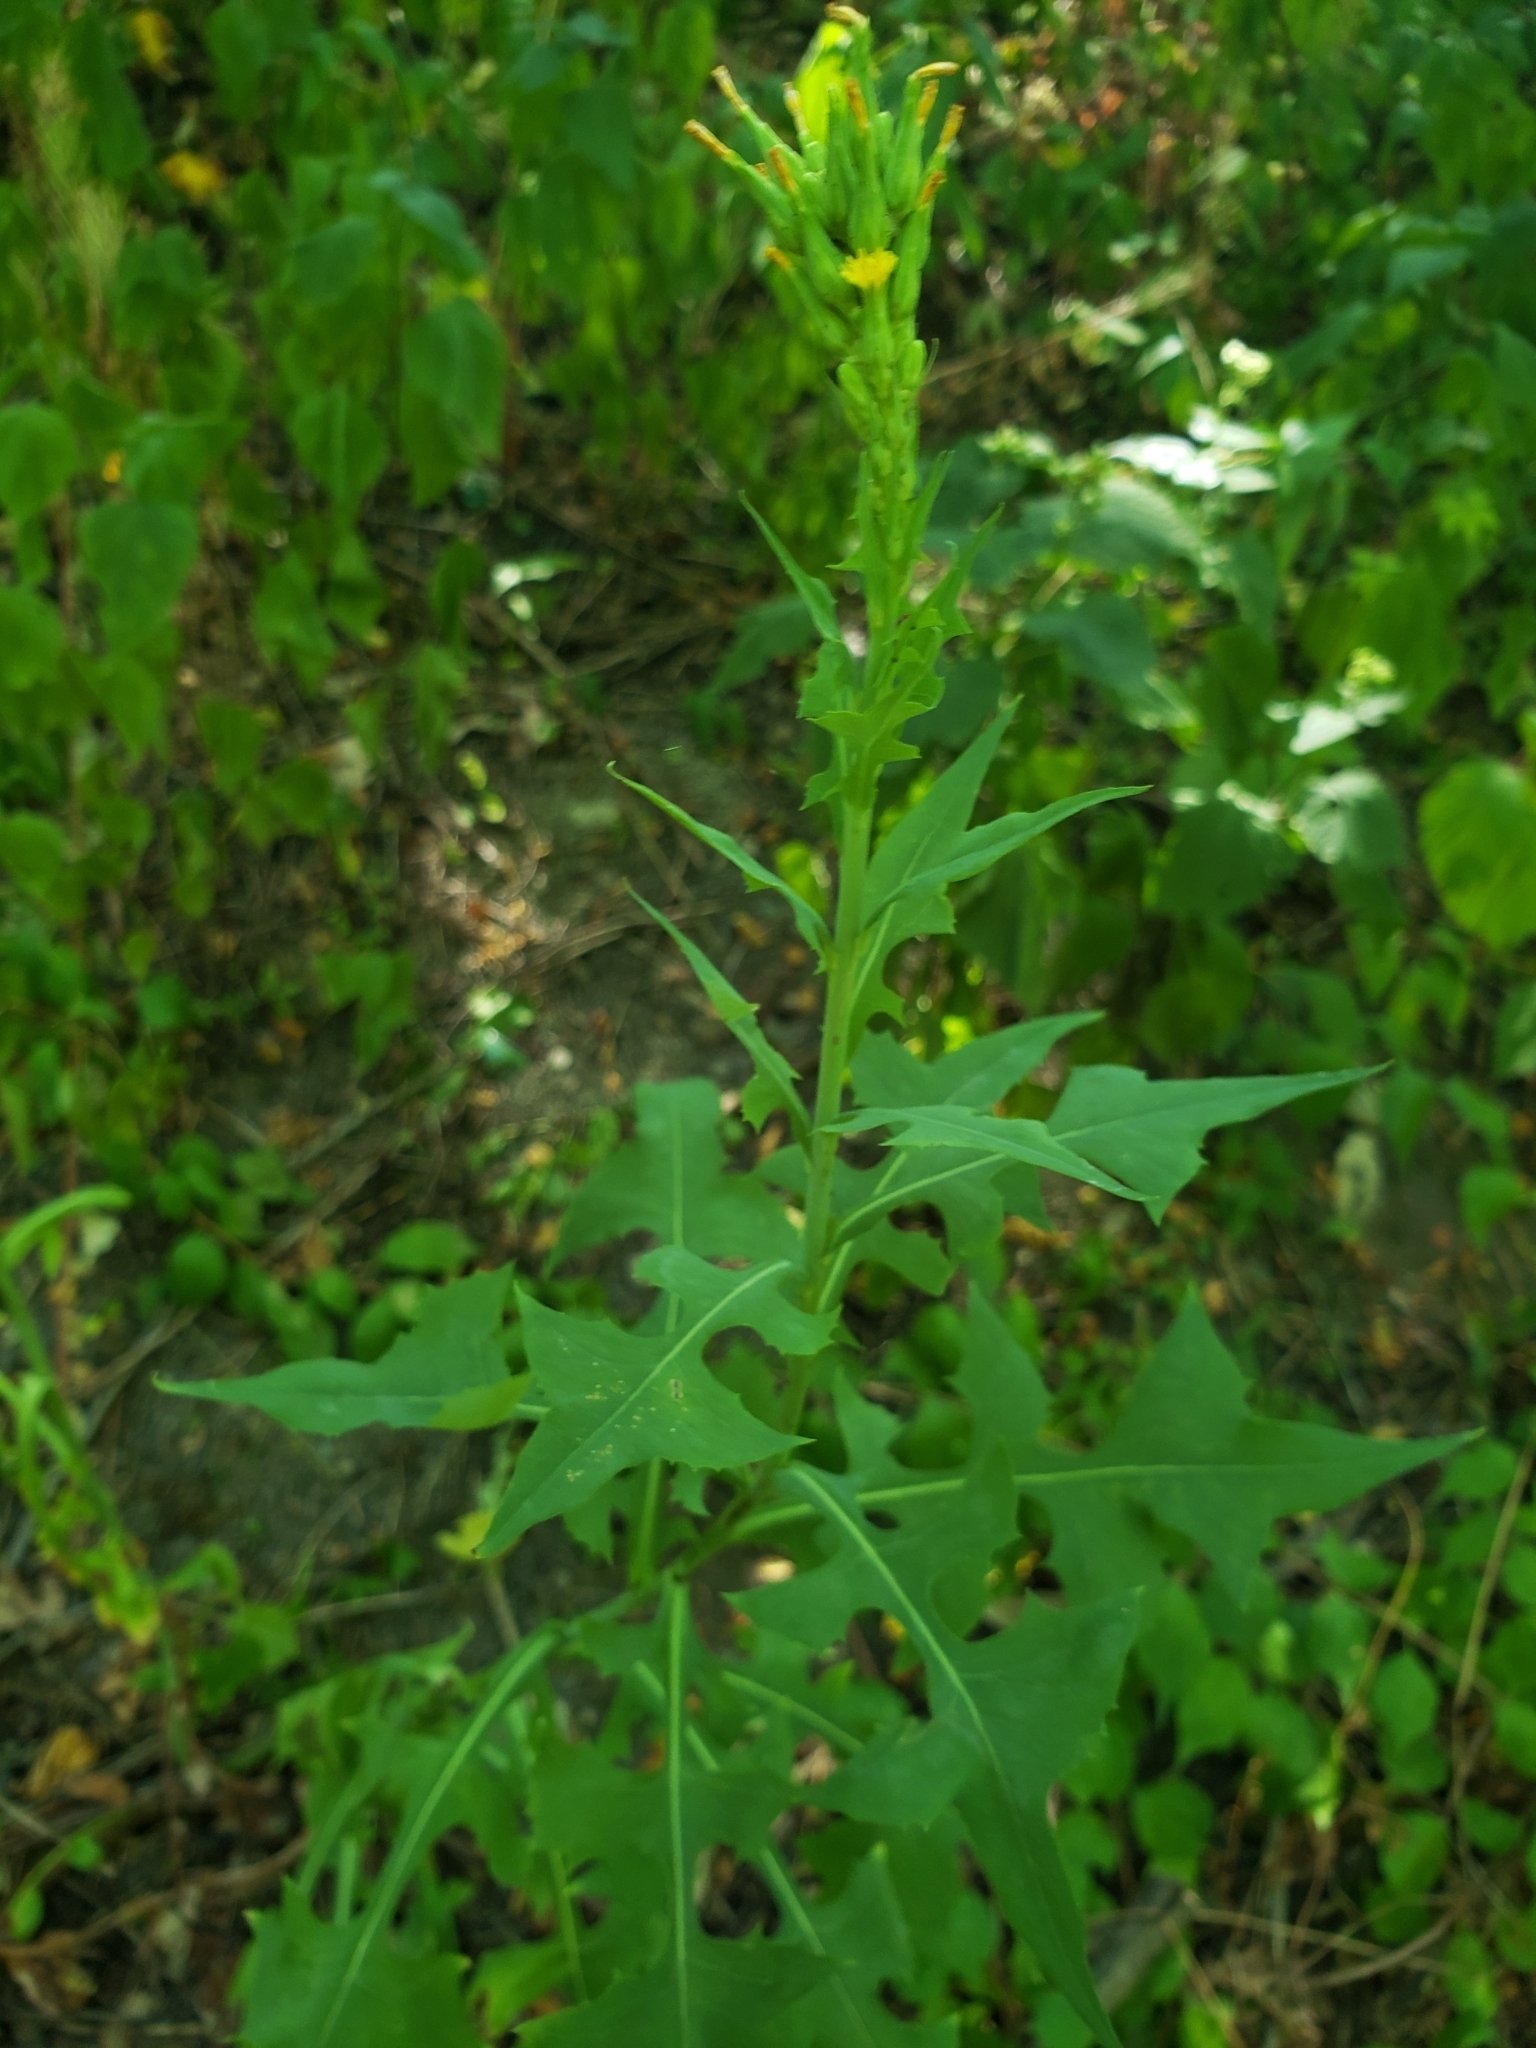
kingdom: Plantae
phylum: Tracheophyta
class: Magnoliopsida
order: Asterales
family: Asteraceae
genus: Lactuca
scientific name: Lactuca canadensis
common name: Canada lettuce
